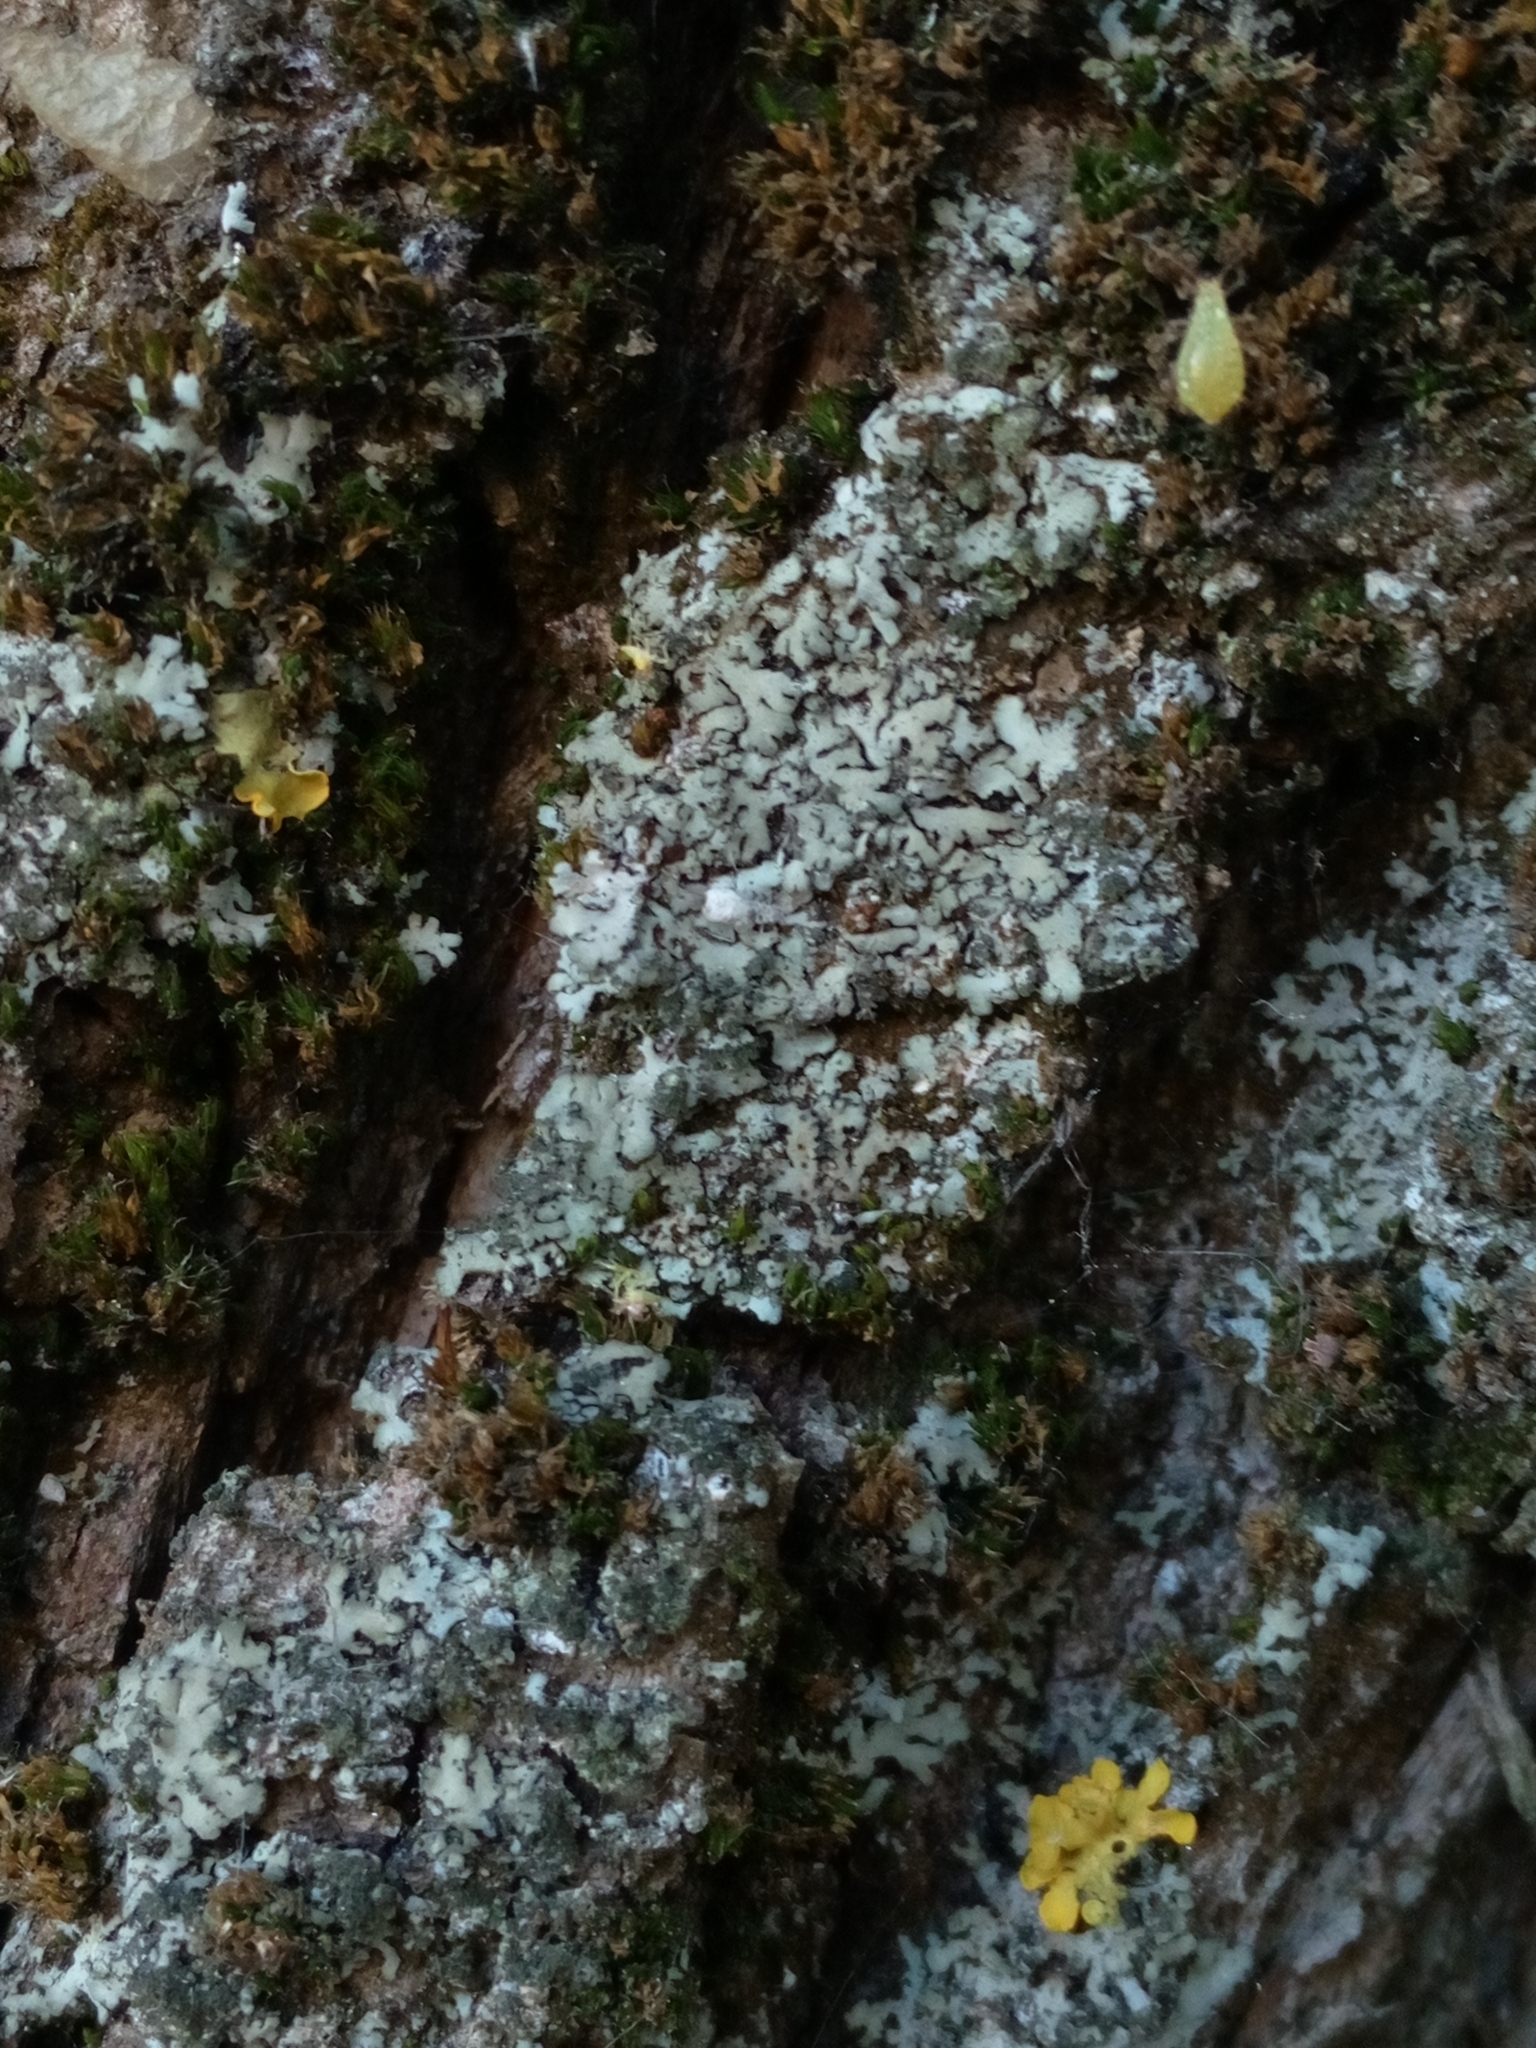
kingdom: Fungi
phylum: Ascomycota
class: Lecanoromycetes
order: Caliciales
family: Physciaceae
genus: Phaeophyscia
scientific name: Phaeophyscia orbicularis
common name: Mealy shadow lichen
